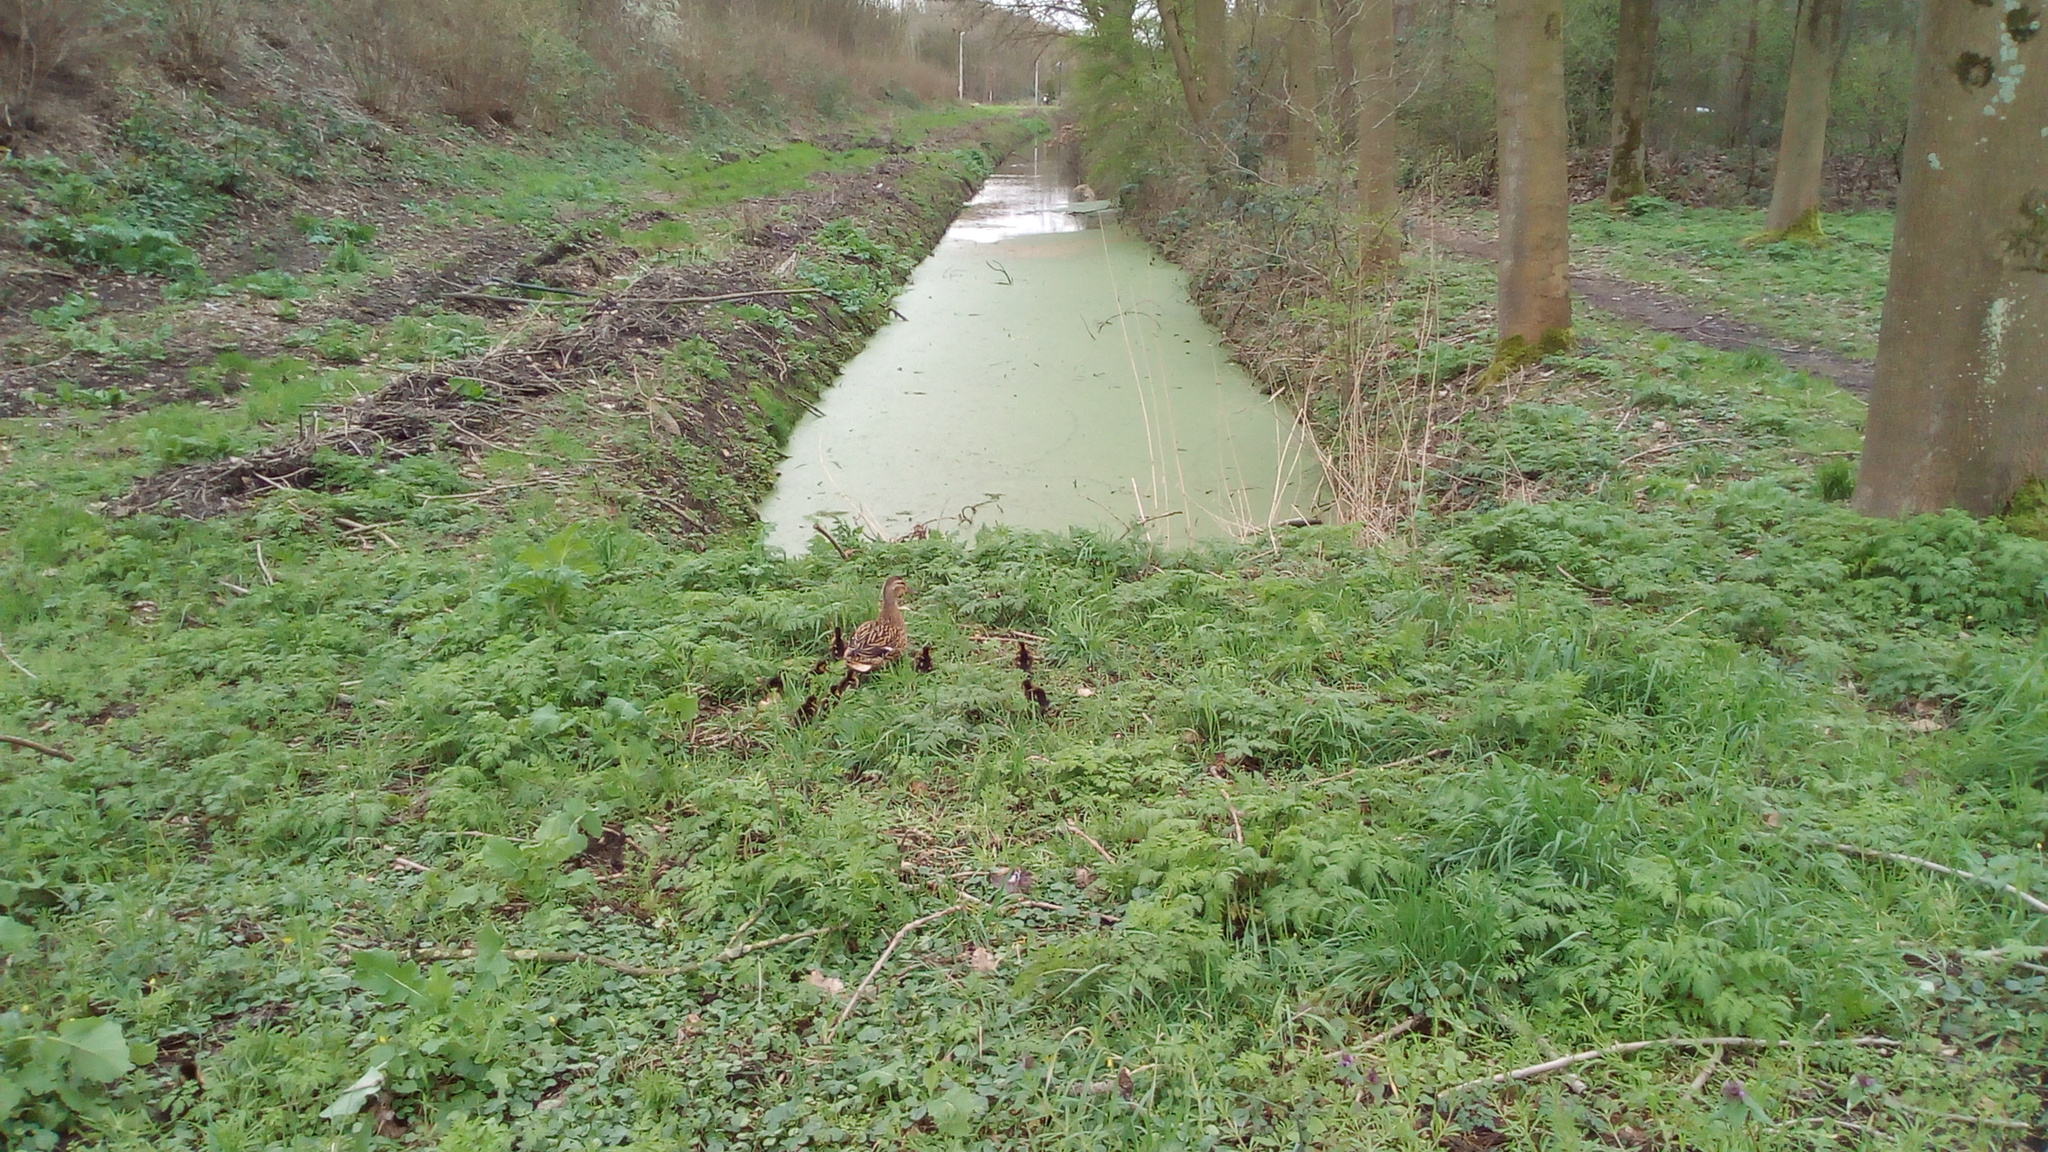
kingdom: Animalia
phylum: Chordata
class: Aves
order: Anseriformes
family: Anatidae
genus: Anas
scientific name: Anas platyrhynchos
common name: Mallard
